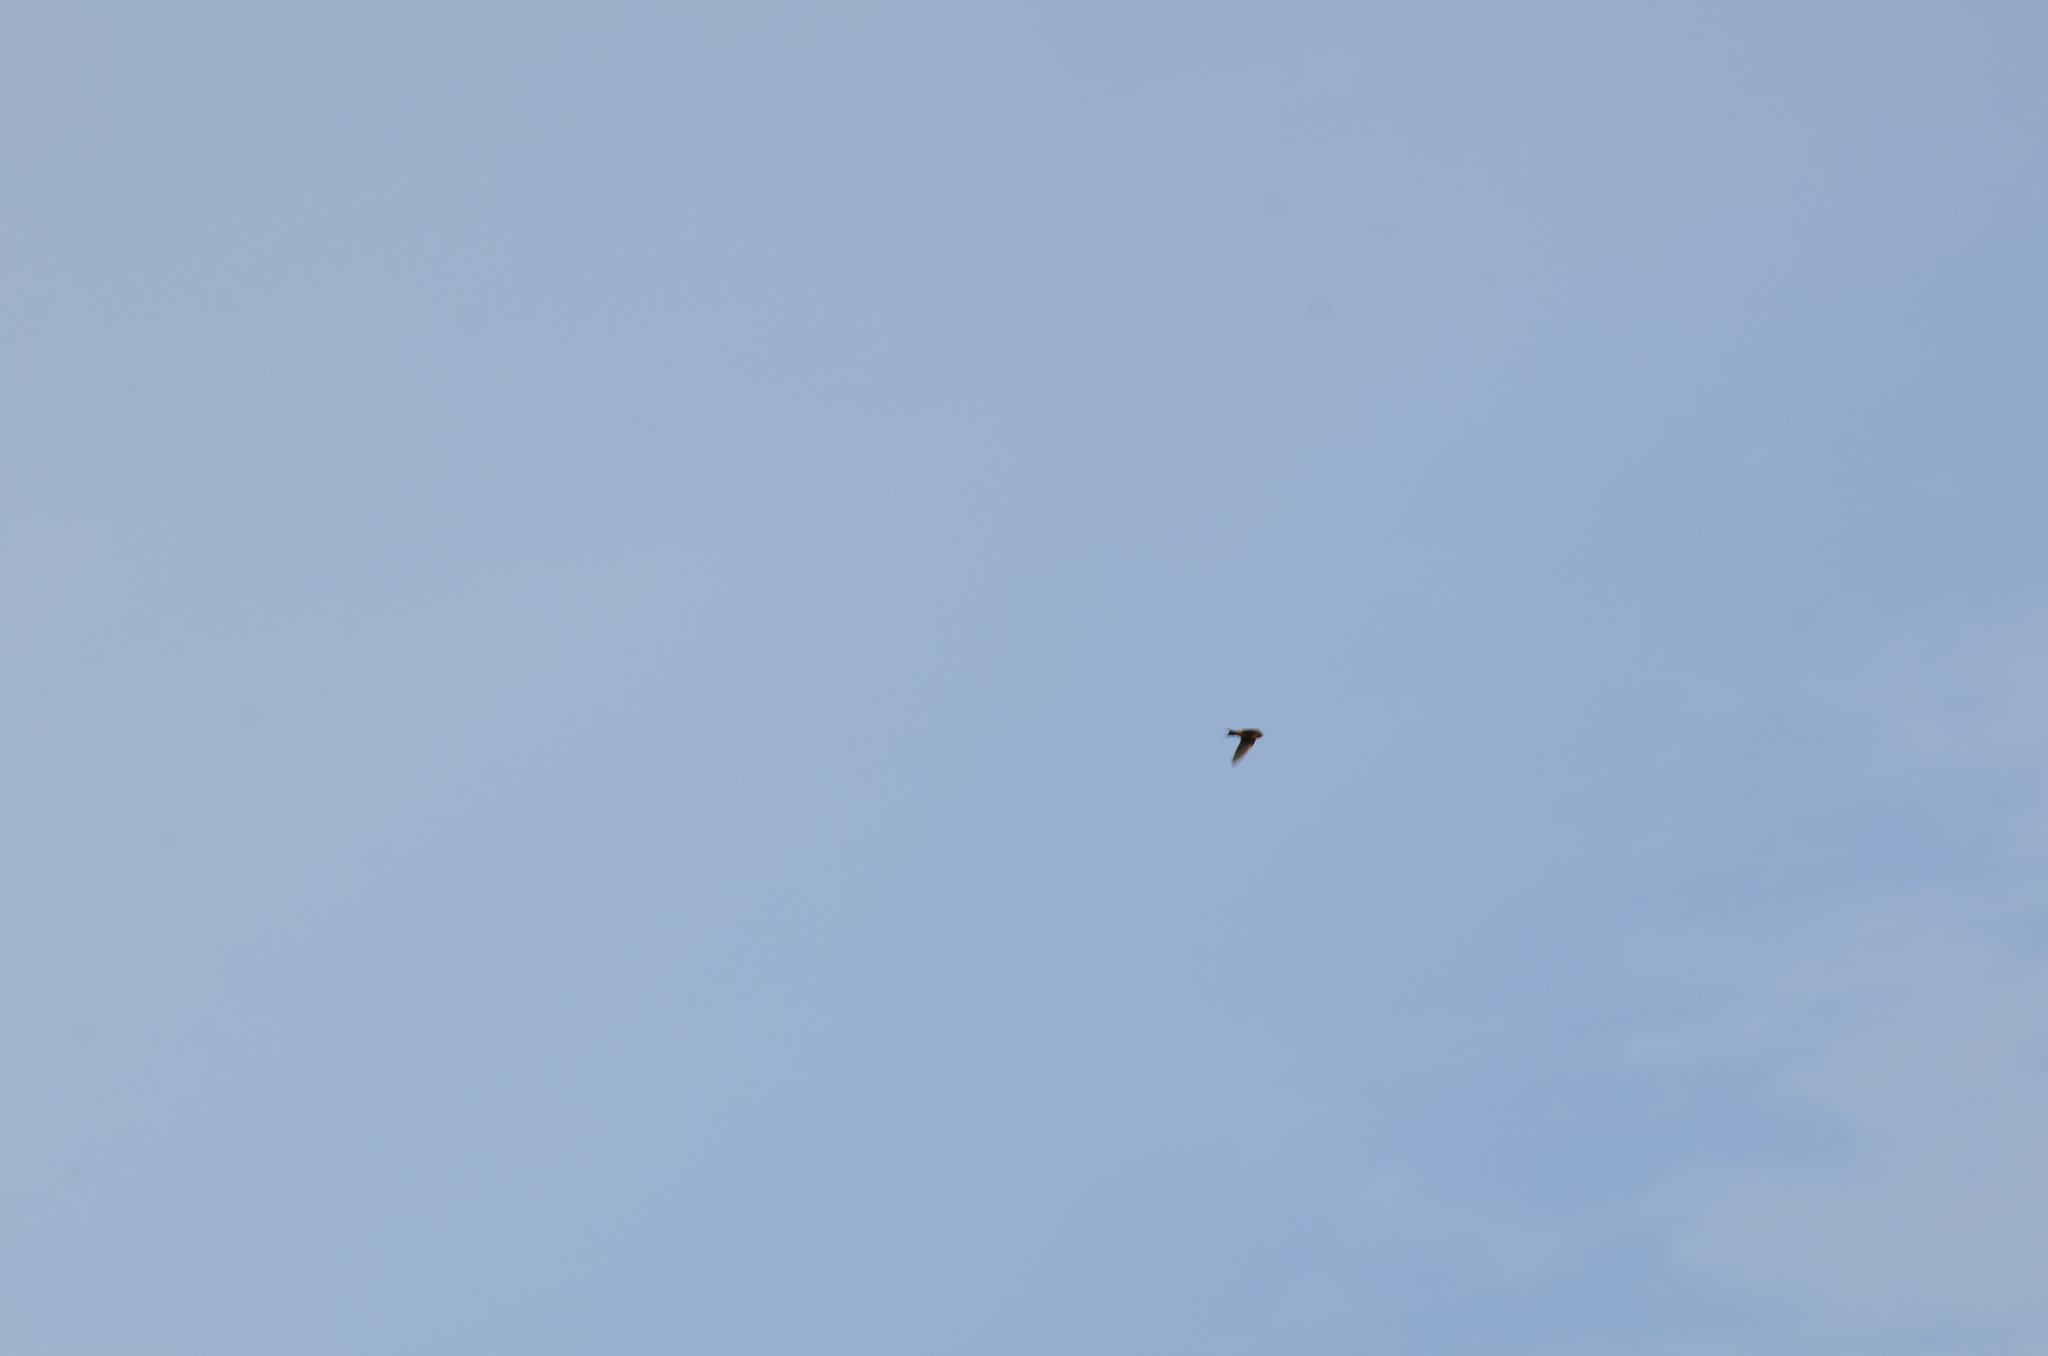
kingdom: Animalia
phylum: Chordata
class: Aves
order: Passeriformes
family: Hirundinidae
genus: Hirundo
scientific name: Hirundo rustica
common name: Barn swallow
